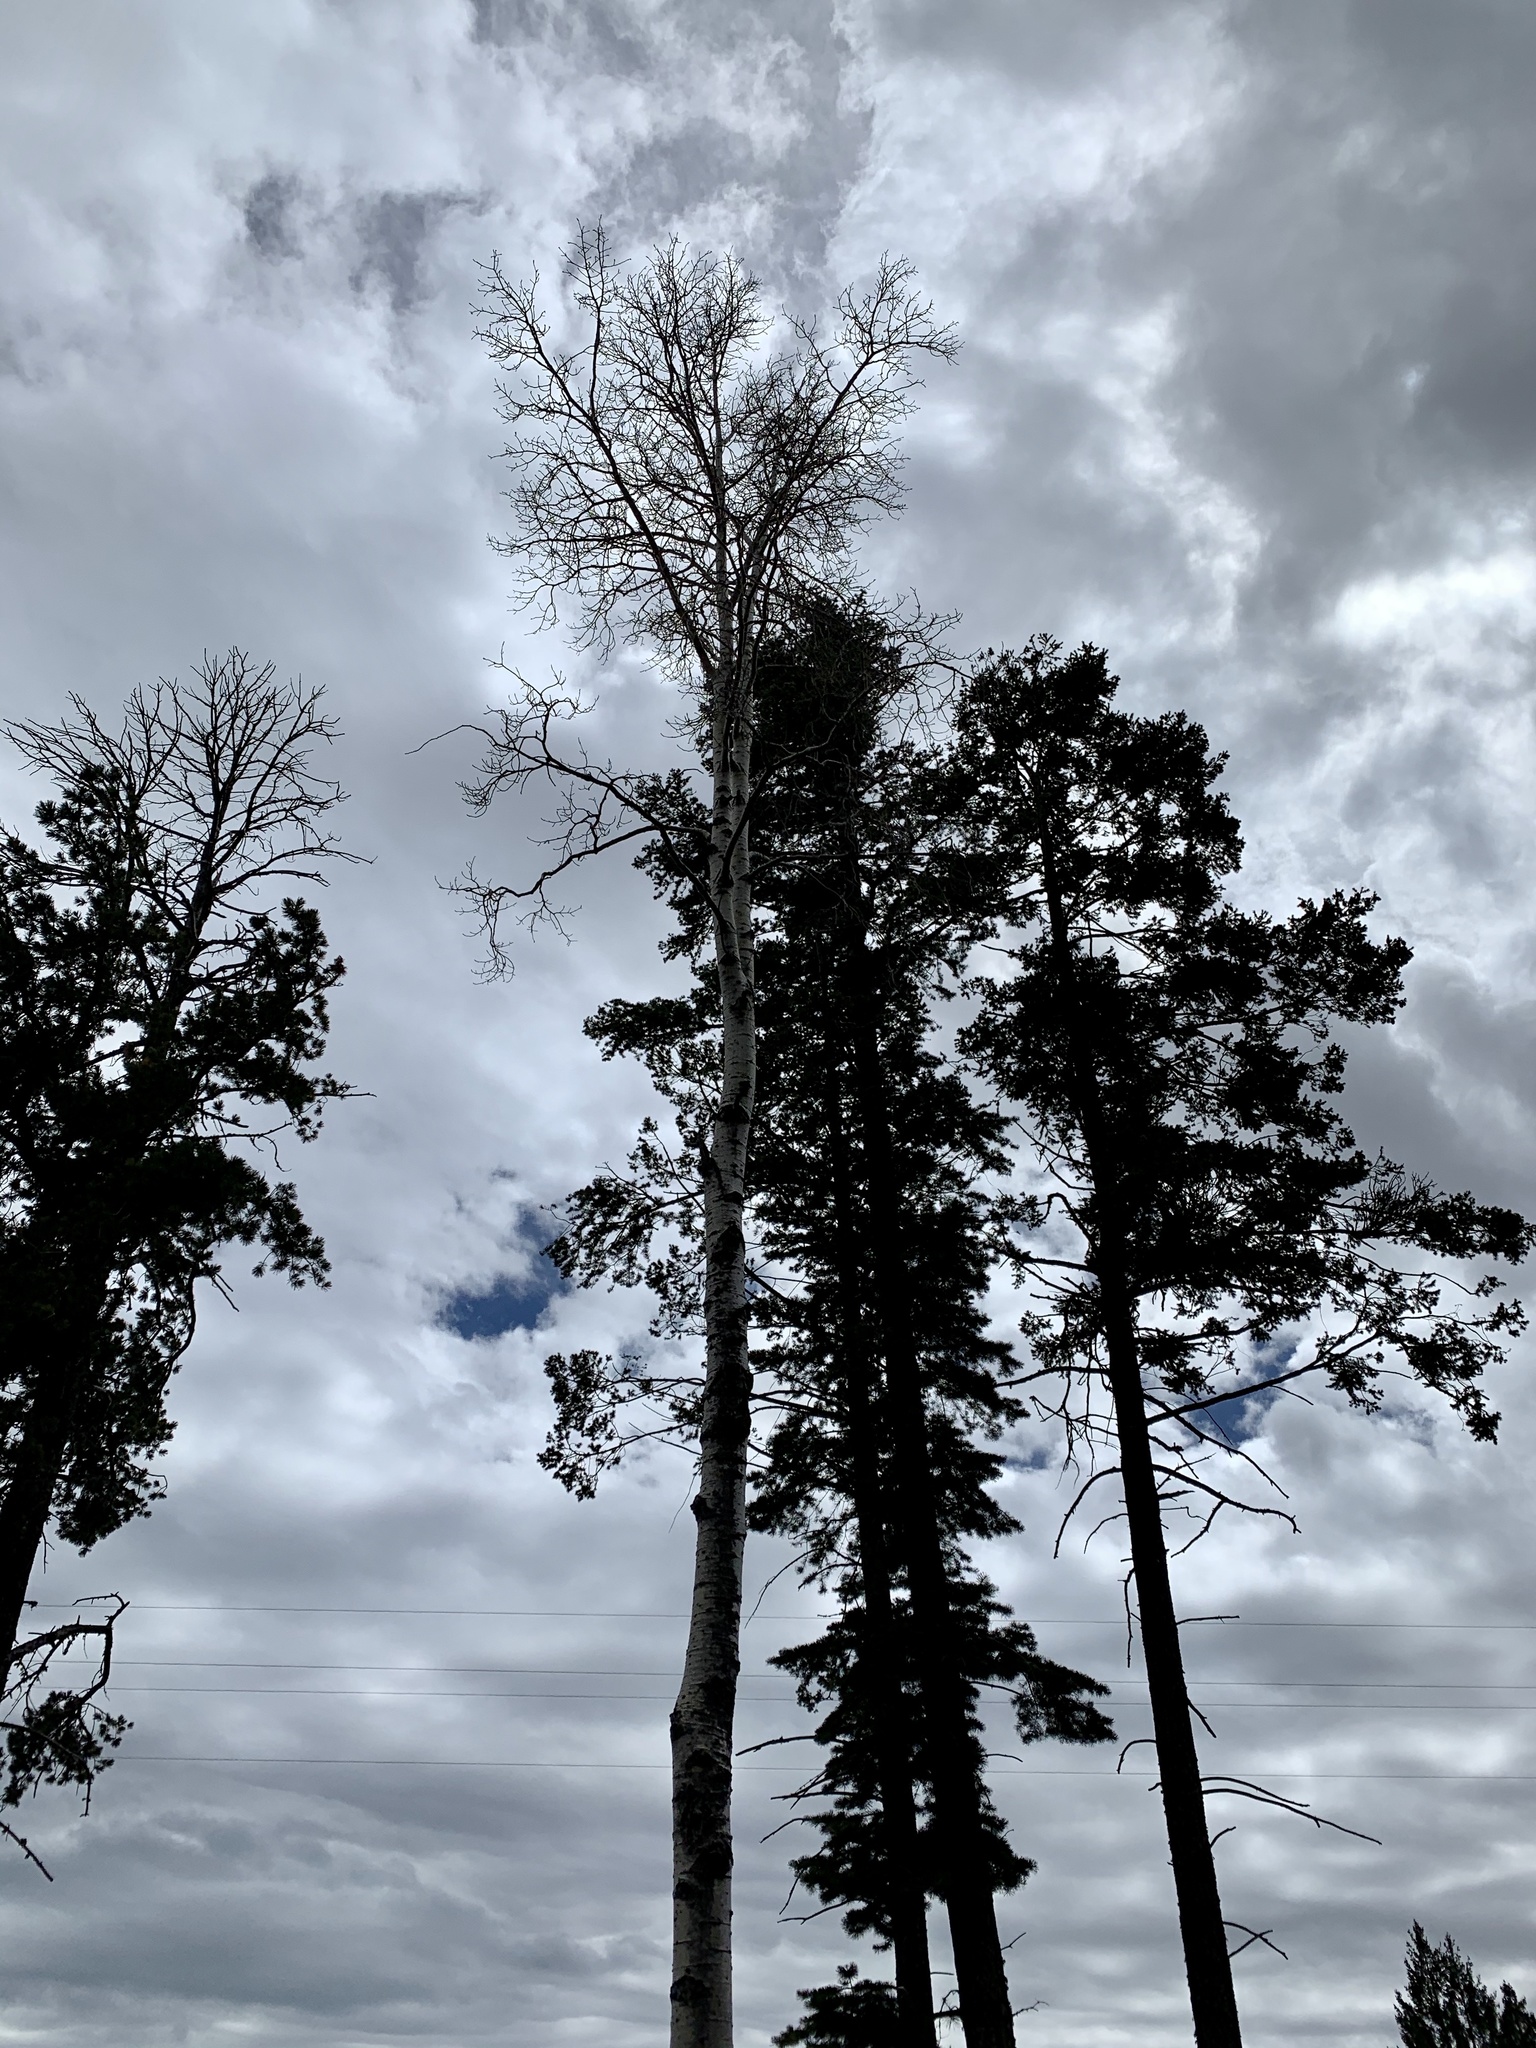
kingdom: Plantae
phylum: Tracheophyta
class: Magnoliopsida
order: Malpighiales
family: Salicaceae
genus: Populus
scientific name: Populus tremuloides
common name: Quaking aspen
